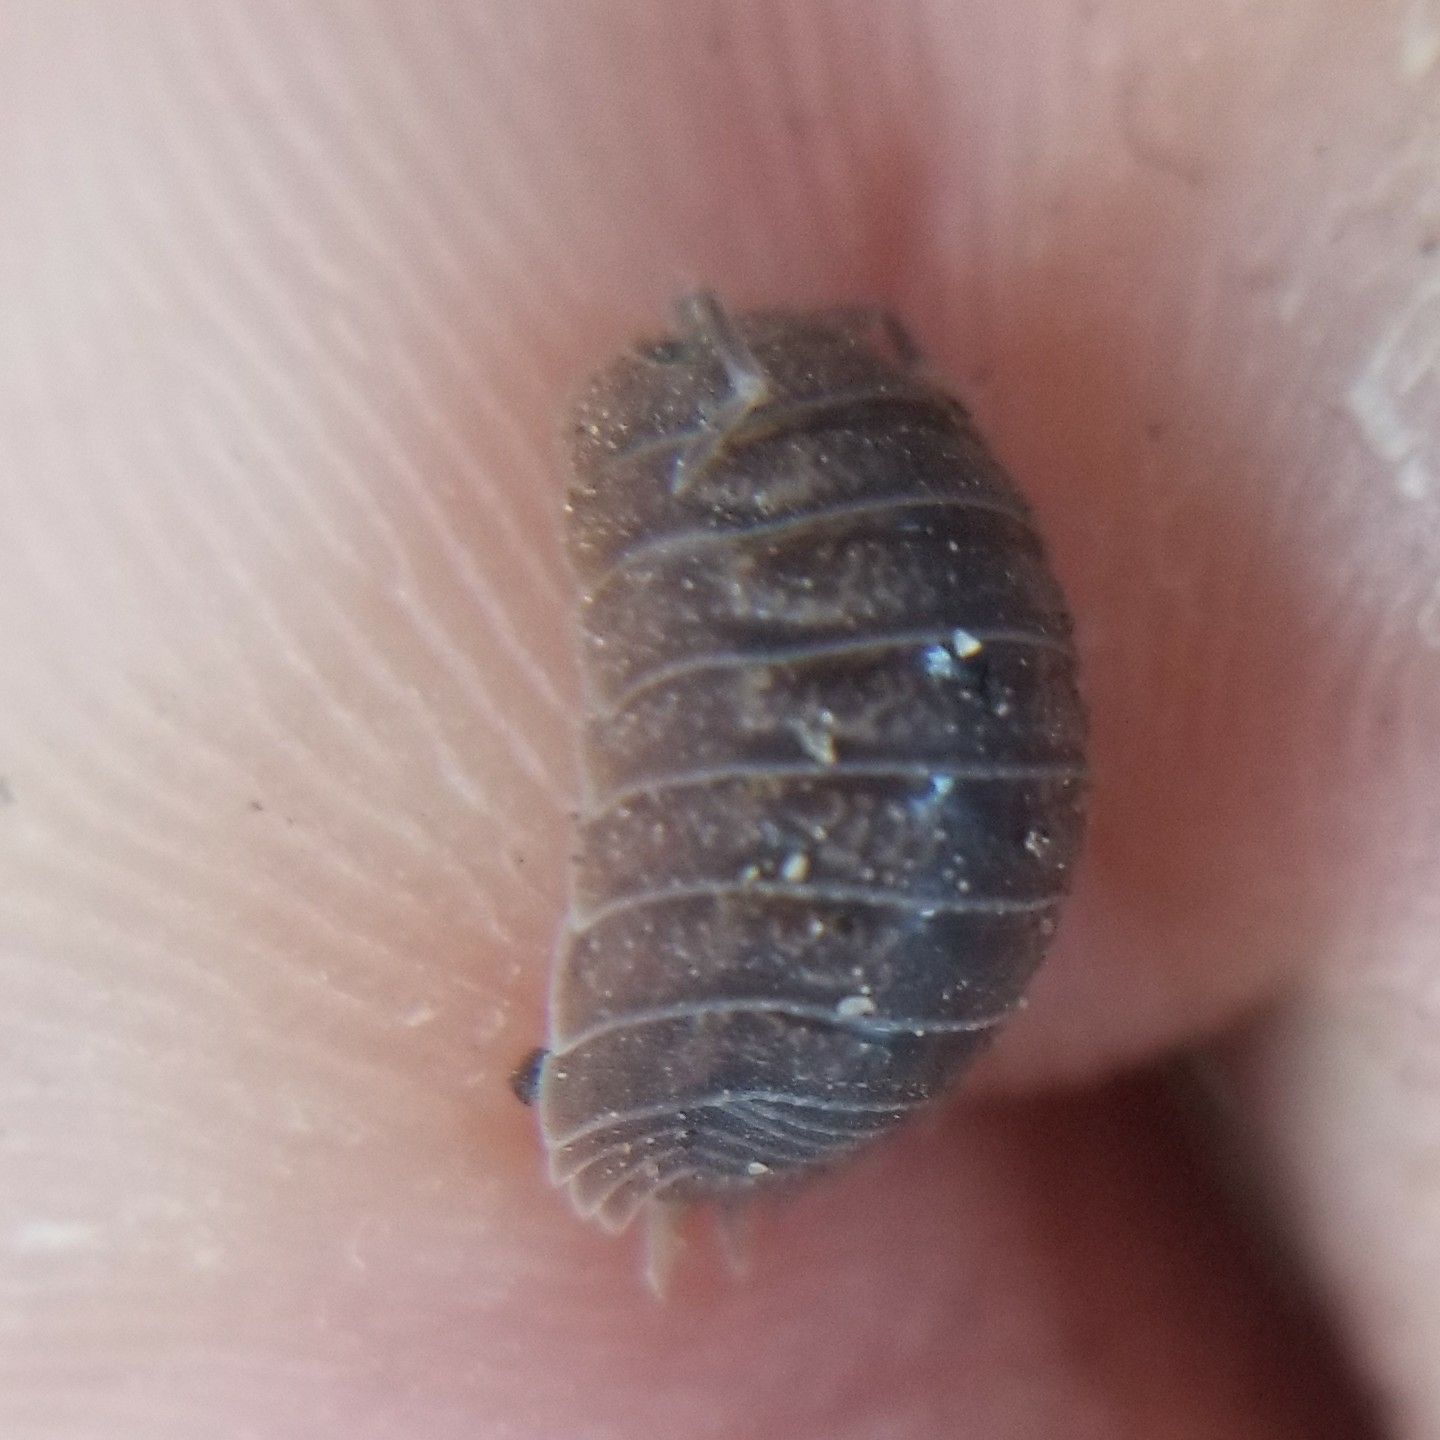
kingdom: Animalia
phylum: Arthropoda
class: Malacostraca
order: Isopoda
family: Porcellionidae
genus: Porcellio
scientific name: Porcellio dilatatus
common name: Isopod
